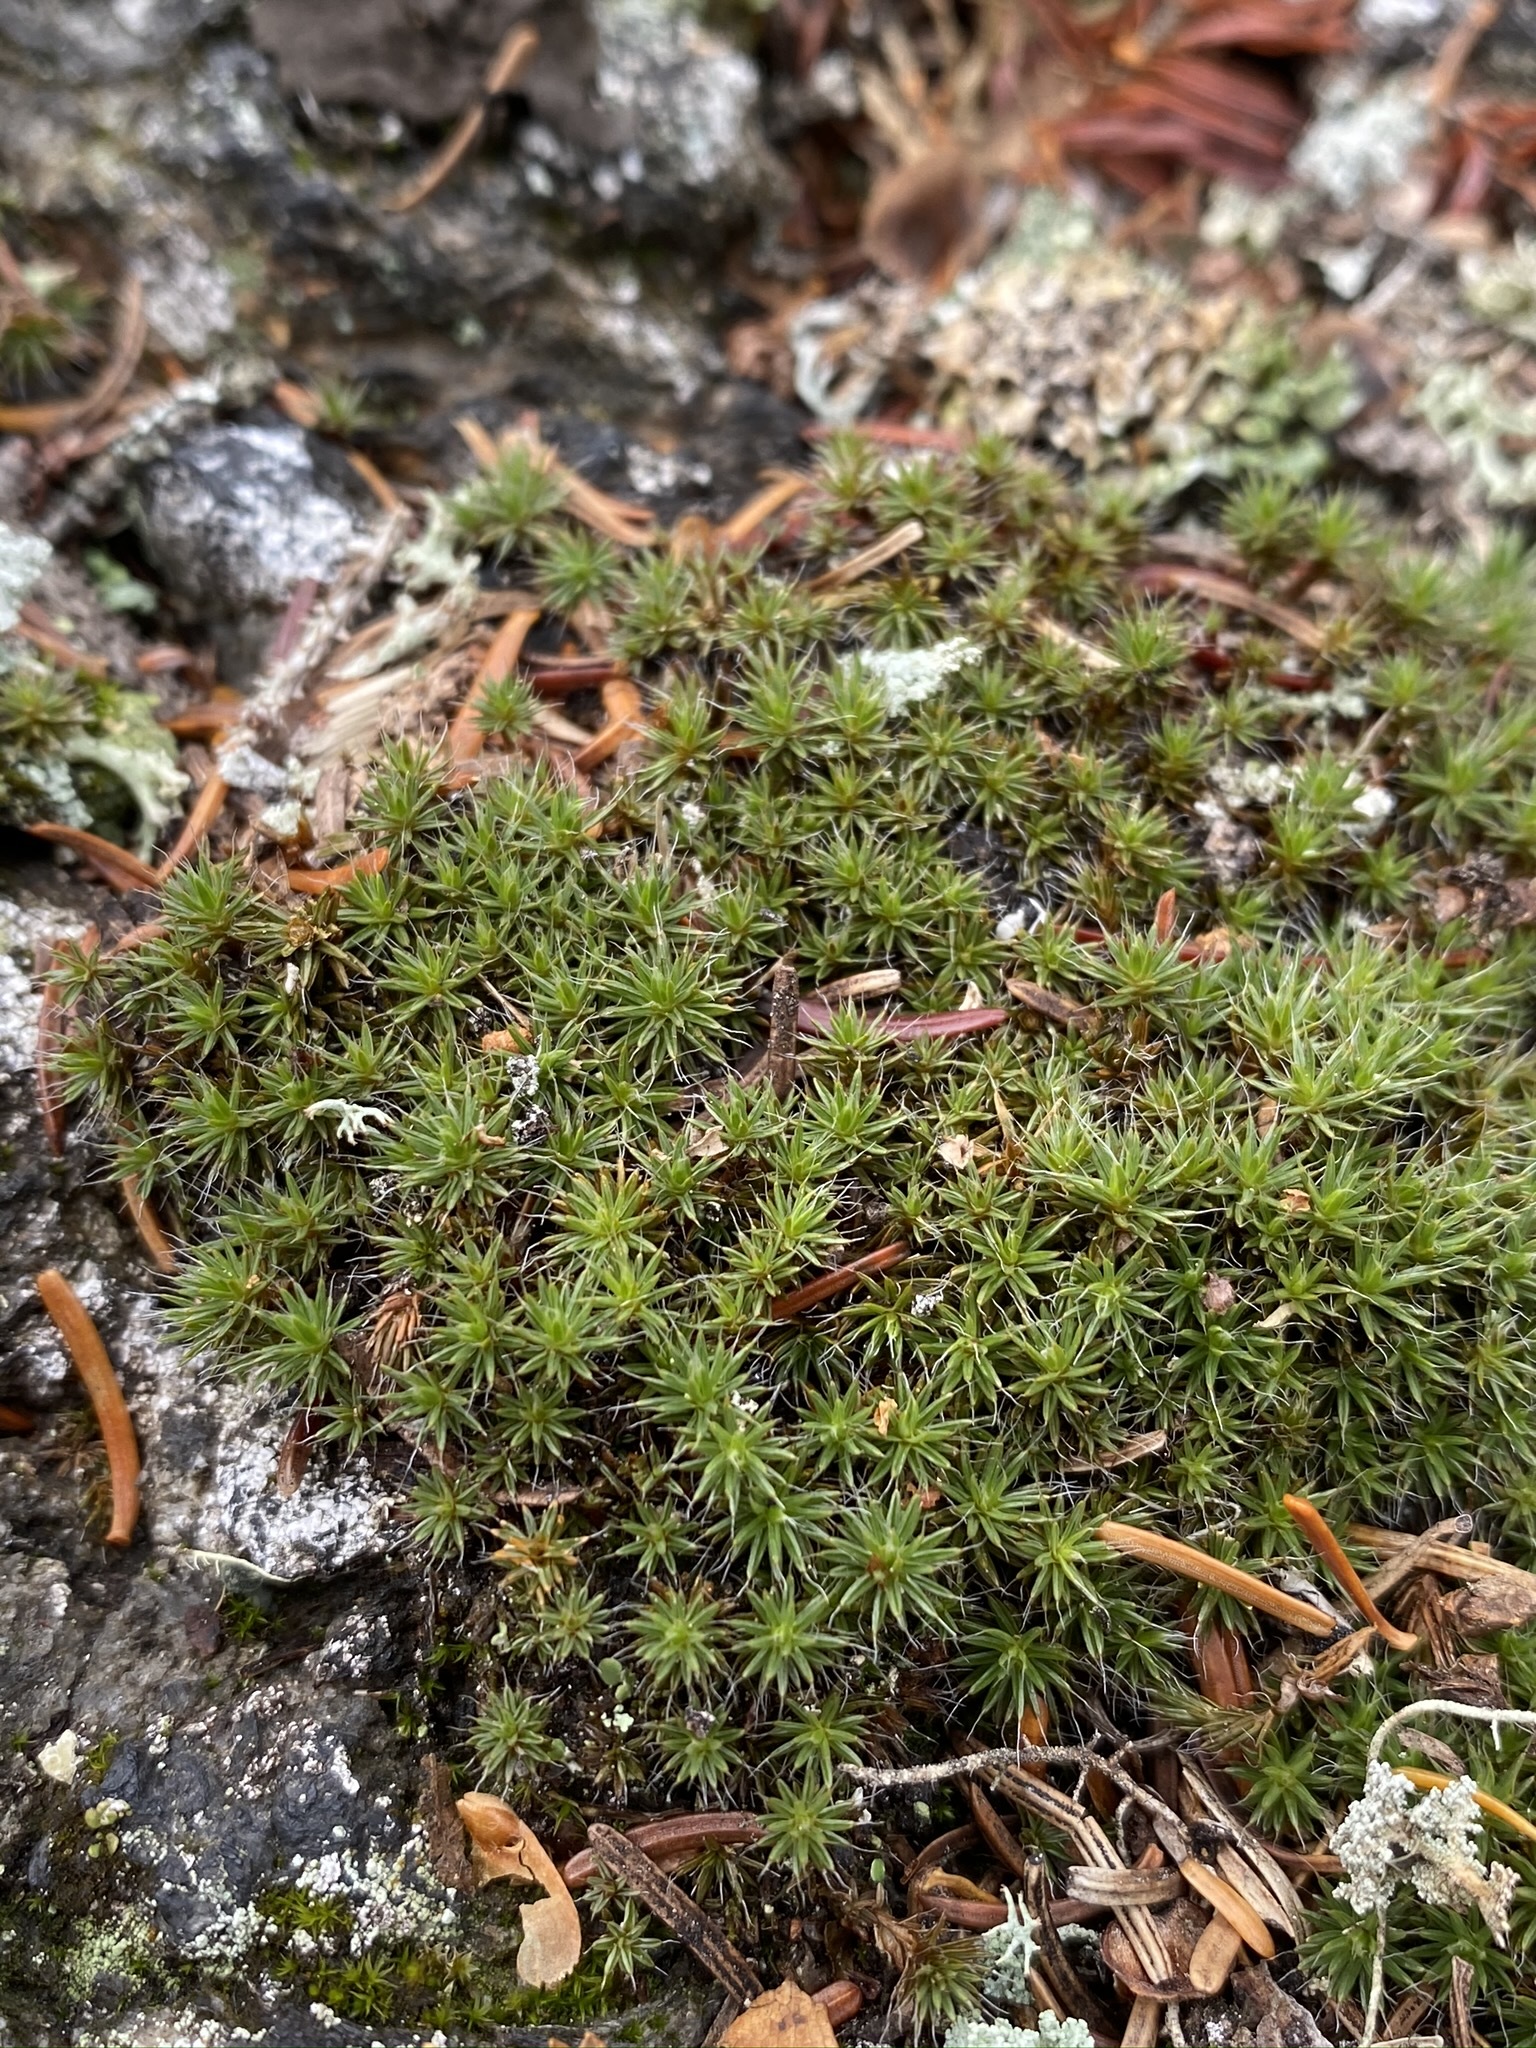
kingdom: Plantae
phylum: Bryophyta
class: Polytrichopsida
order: Polytrichales
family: Polytrichaceae
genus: Polytrichum
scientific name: Polytrichum piliferum
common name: Bristly haircap
